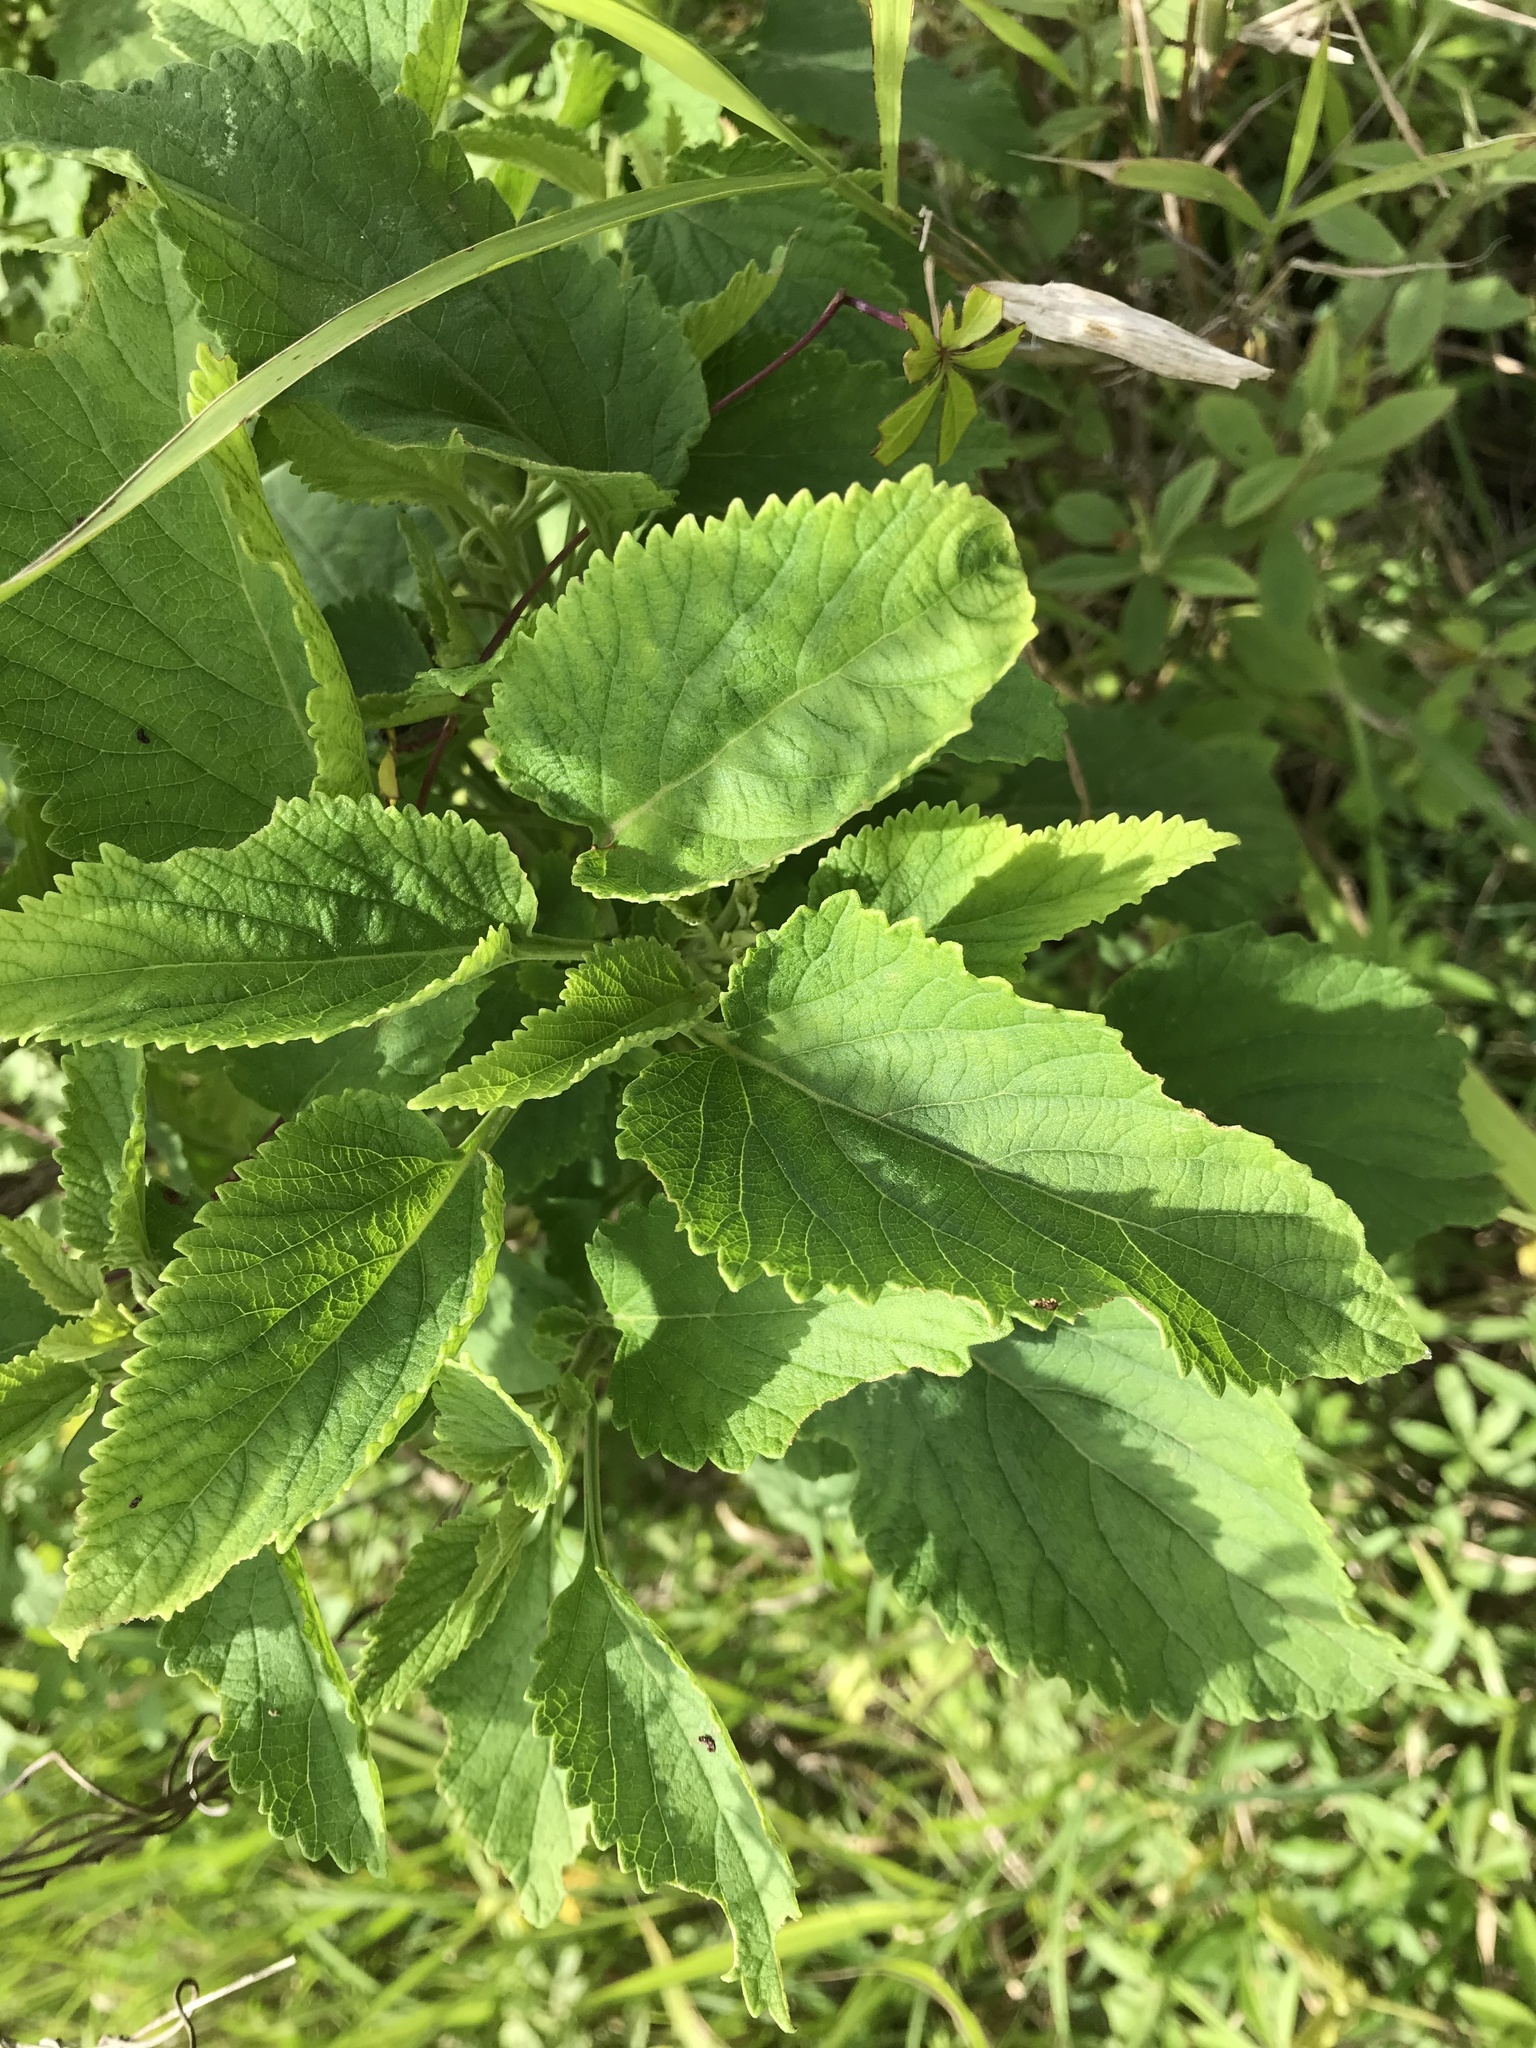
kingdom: Plantae
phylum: Tracheophyta
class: Magnoliopsida
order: Lamiales
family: Lamiaceae
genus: Leonotis
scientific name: Leonotis nepetifolia
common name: Christmas candlestick
